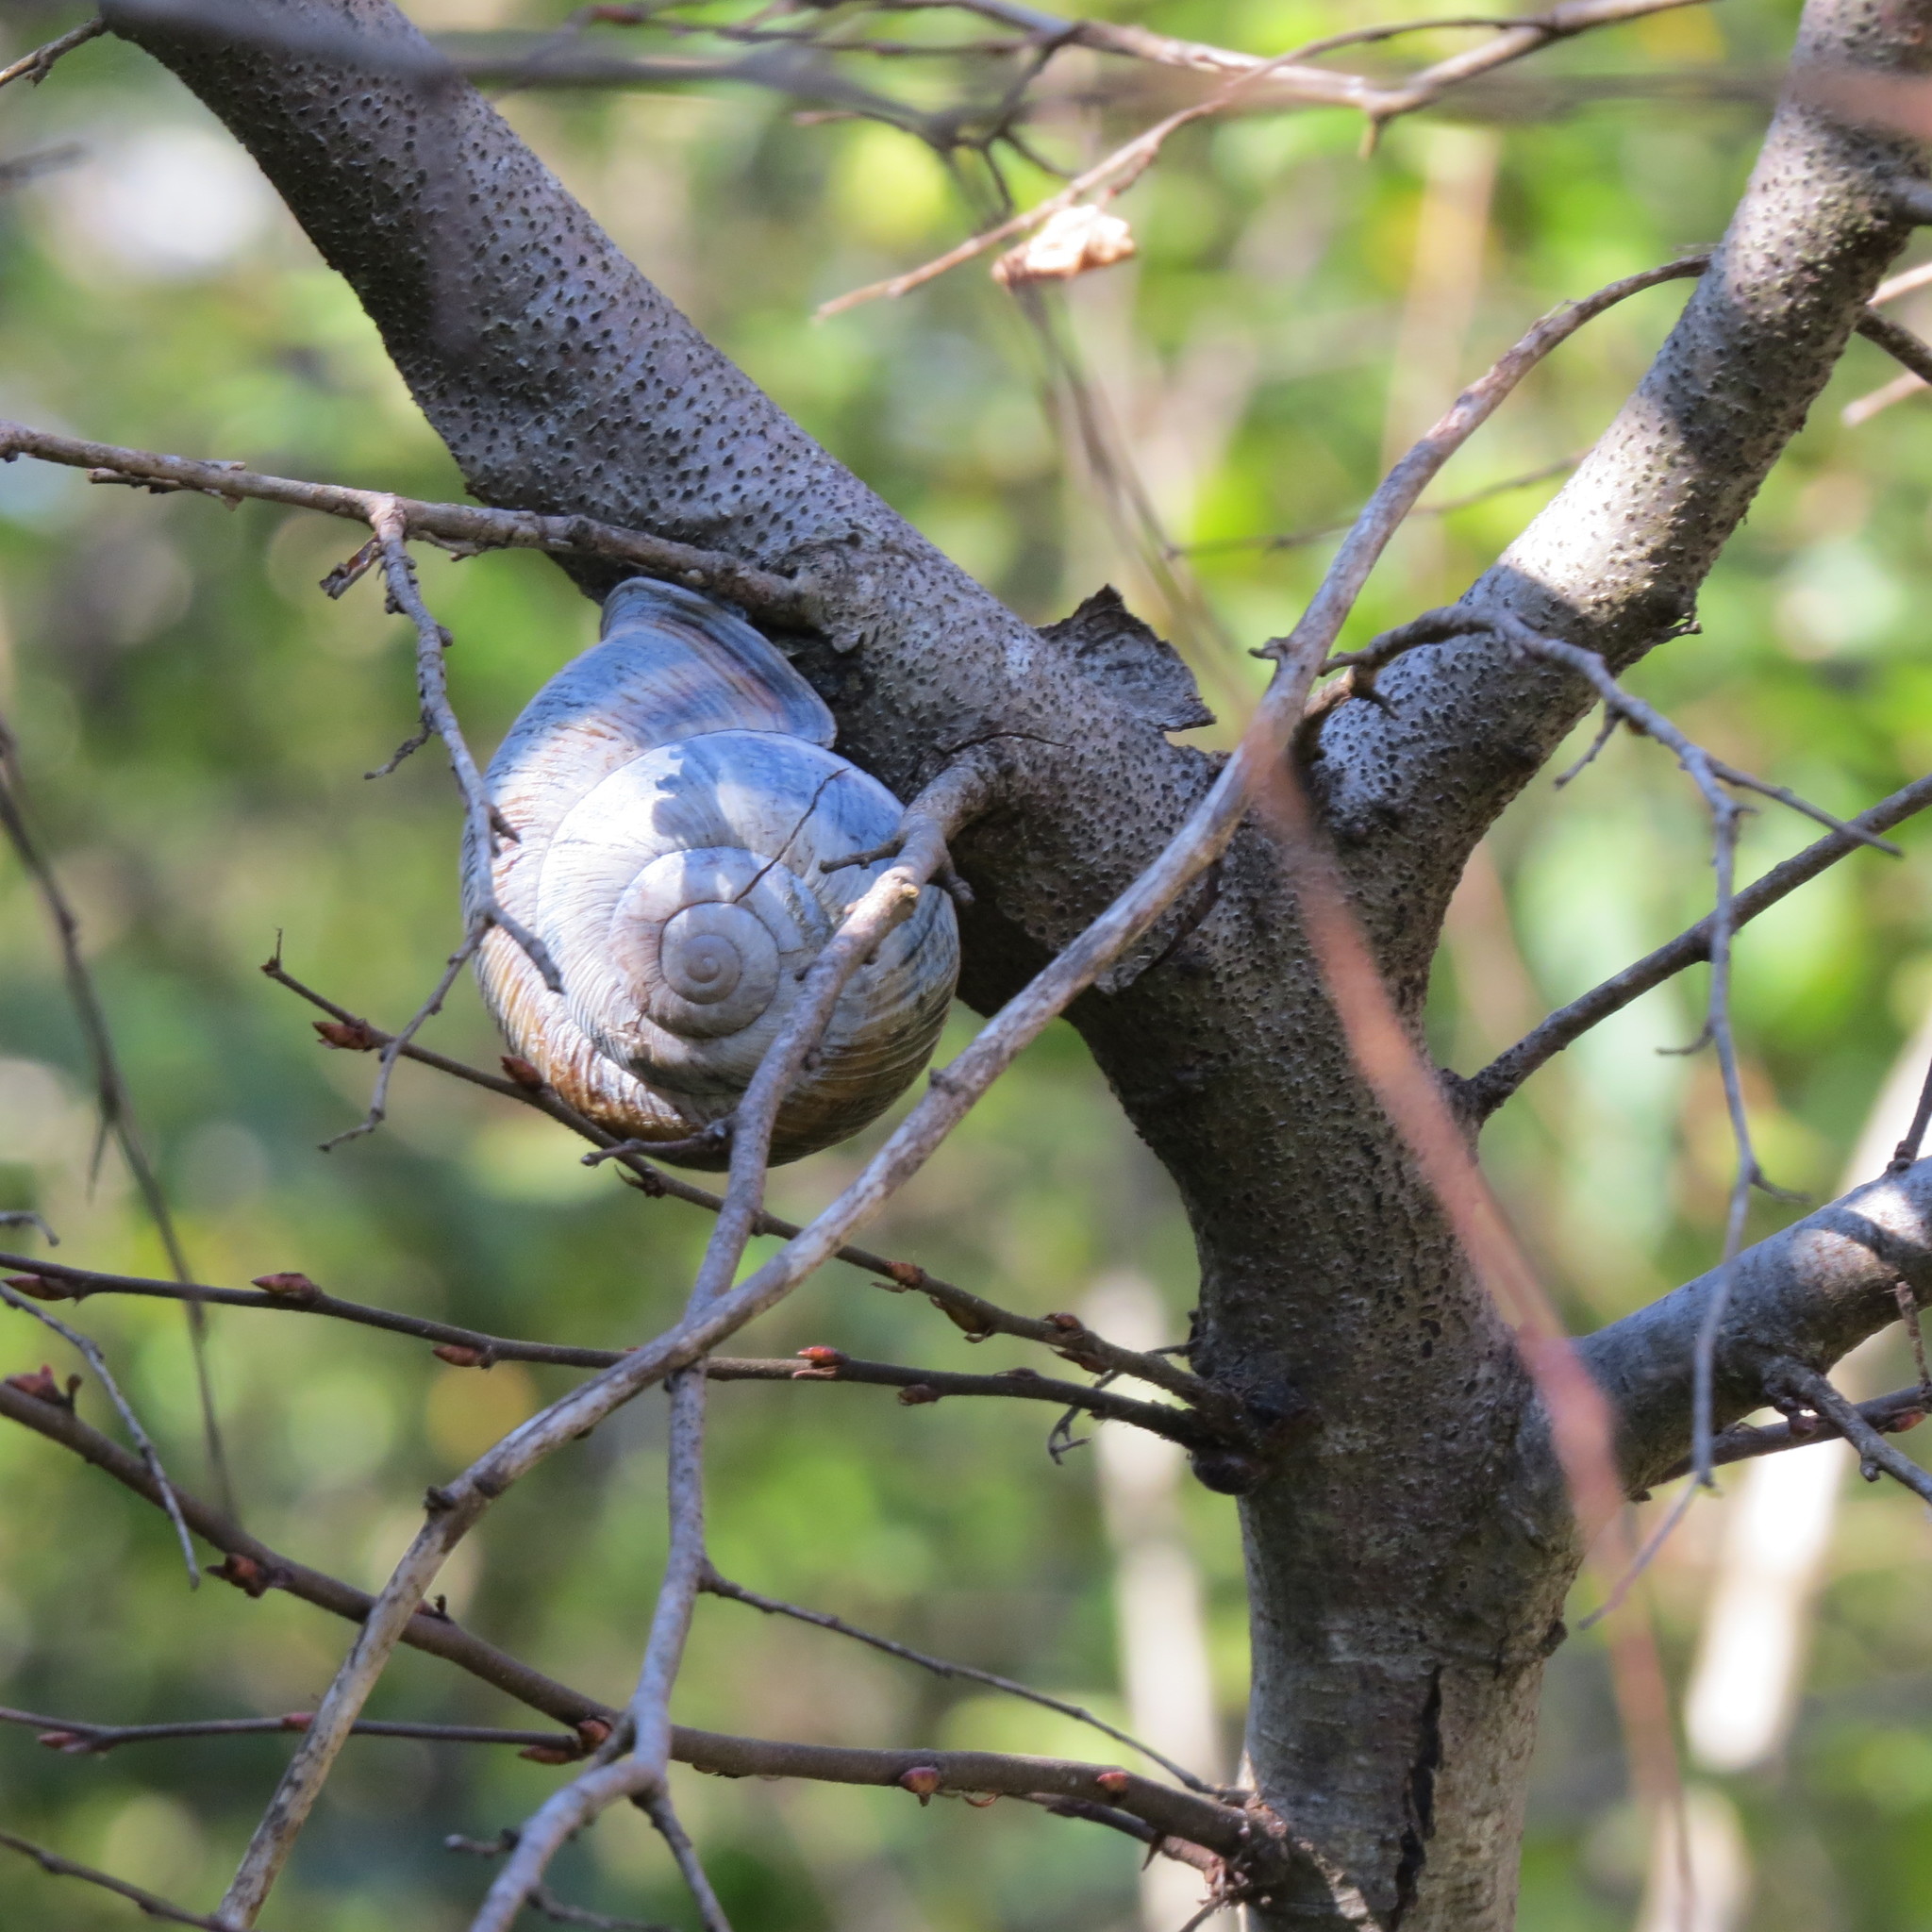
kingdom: Animalia
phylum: Mollusca
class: Gastropoda
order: Stylommatophora
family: Helicidae
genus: Caucasotachea
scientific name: Caucasotachea atrolabiata
